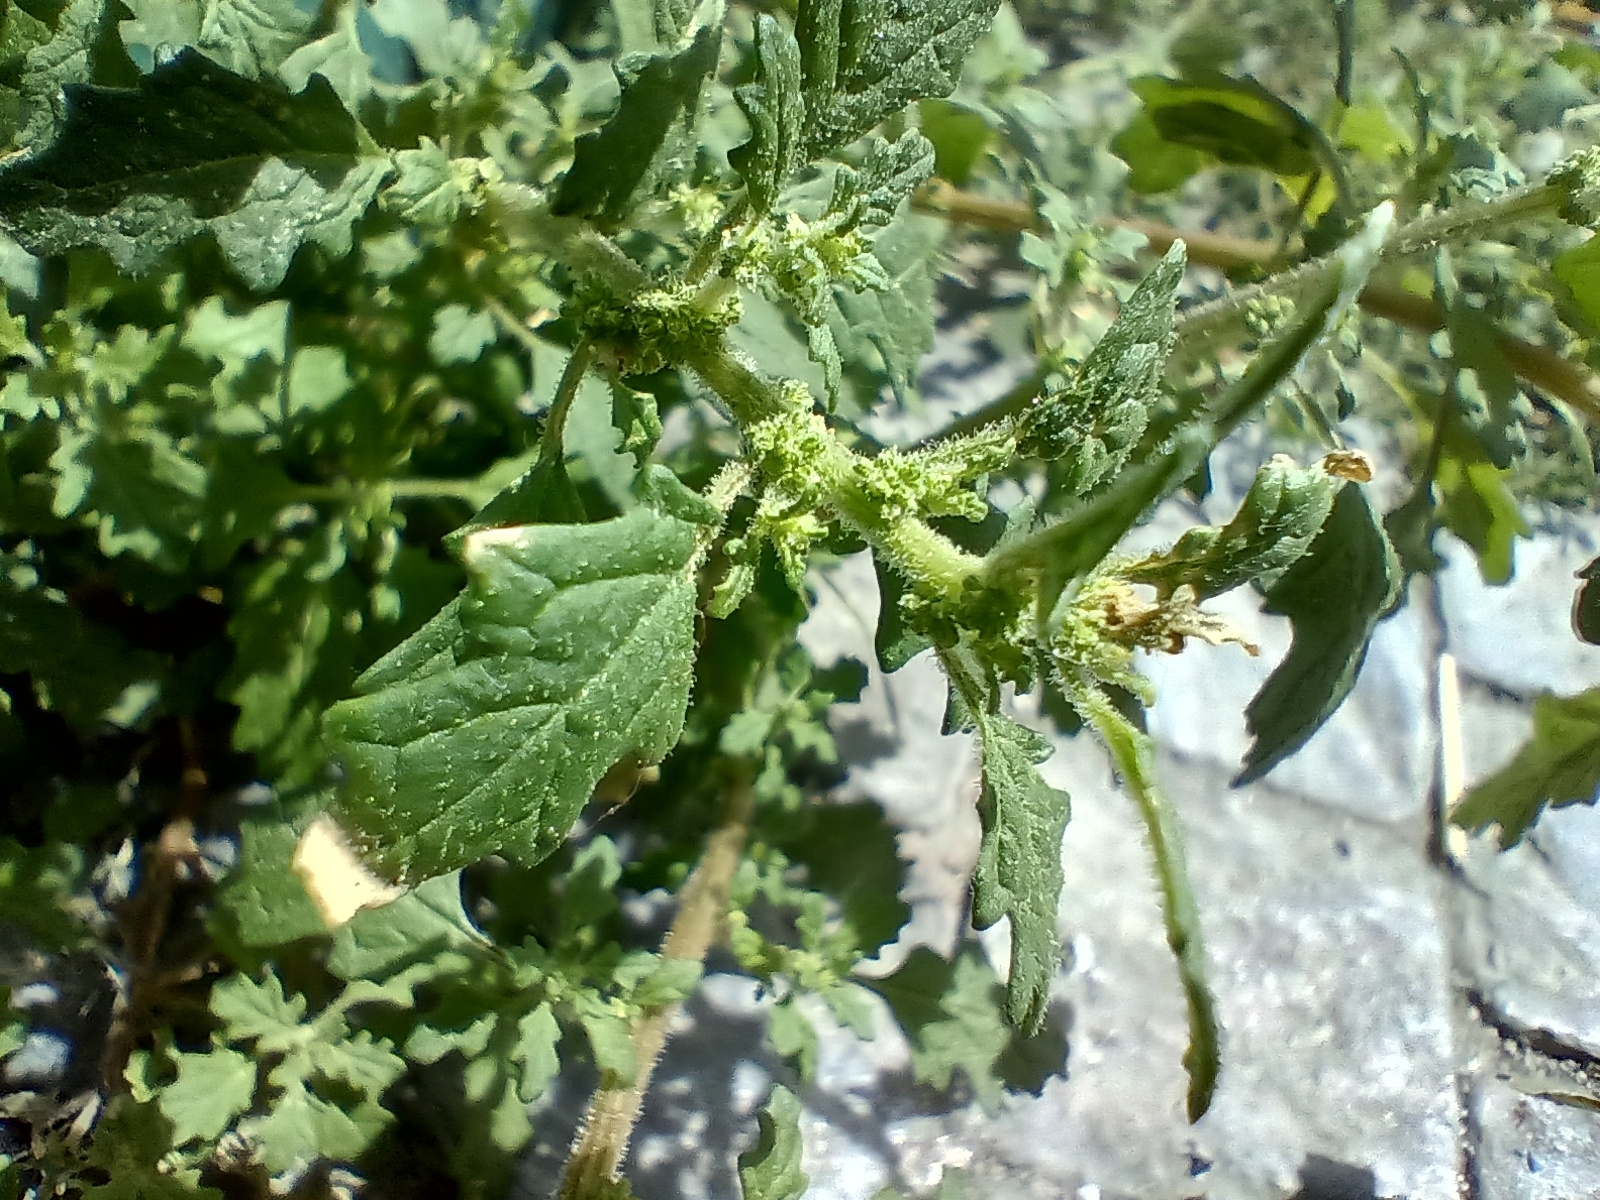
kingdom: Plantae
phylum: Tracheophyta
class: Magnoliopsida
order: Caryophyllales
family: Amaranthaceae
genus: Dysphania
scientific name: Dysphania pumilio
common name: Clammy goosefoot
